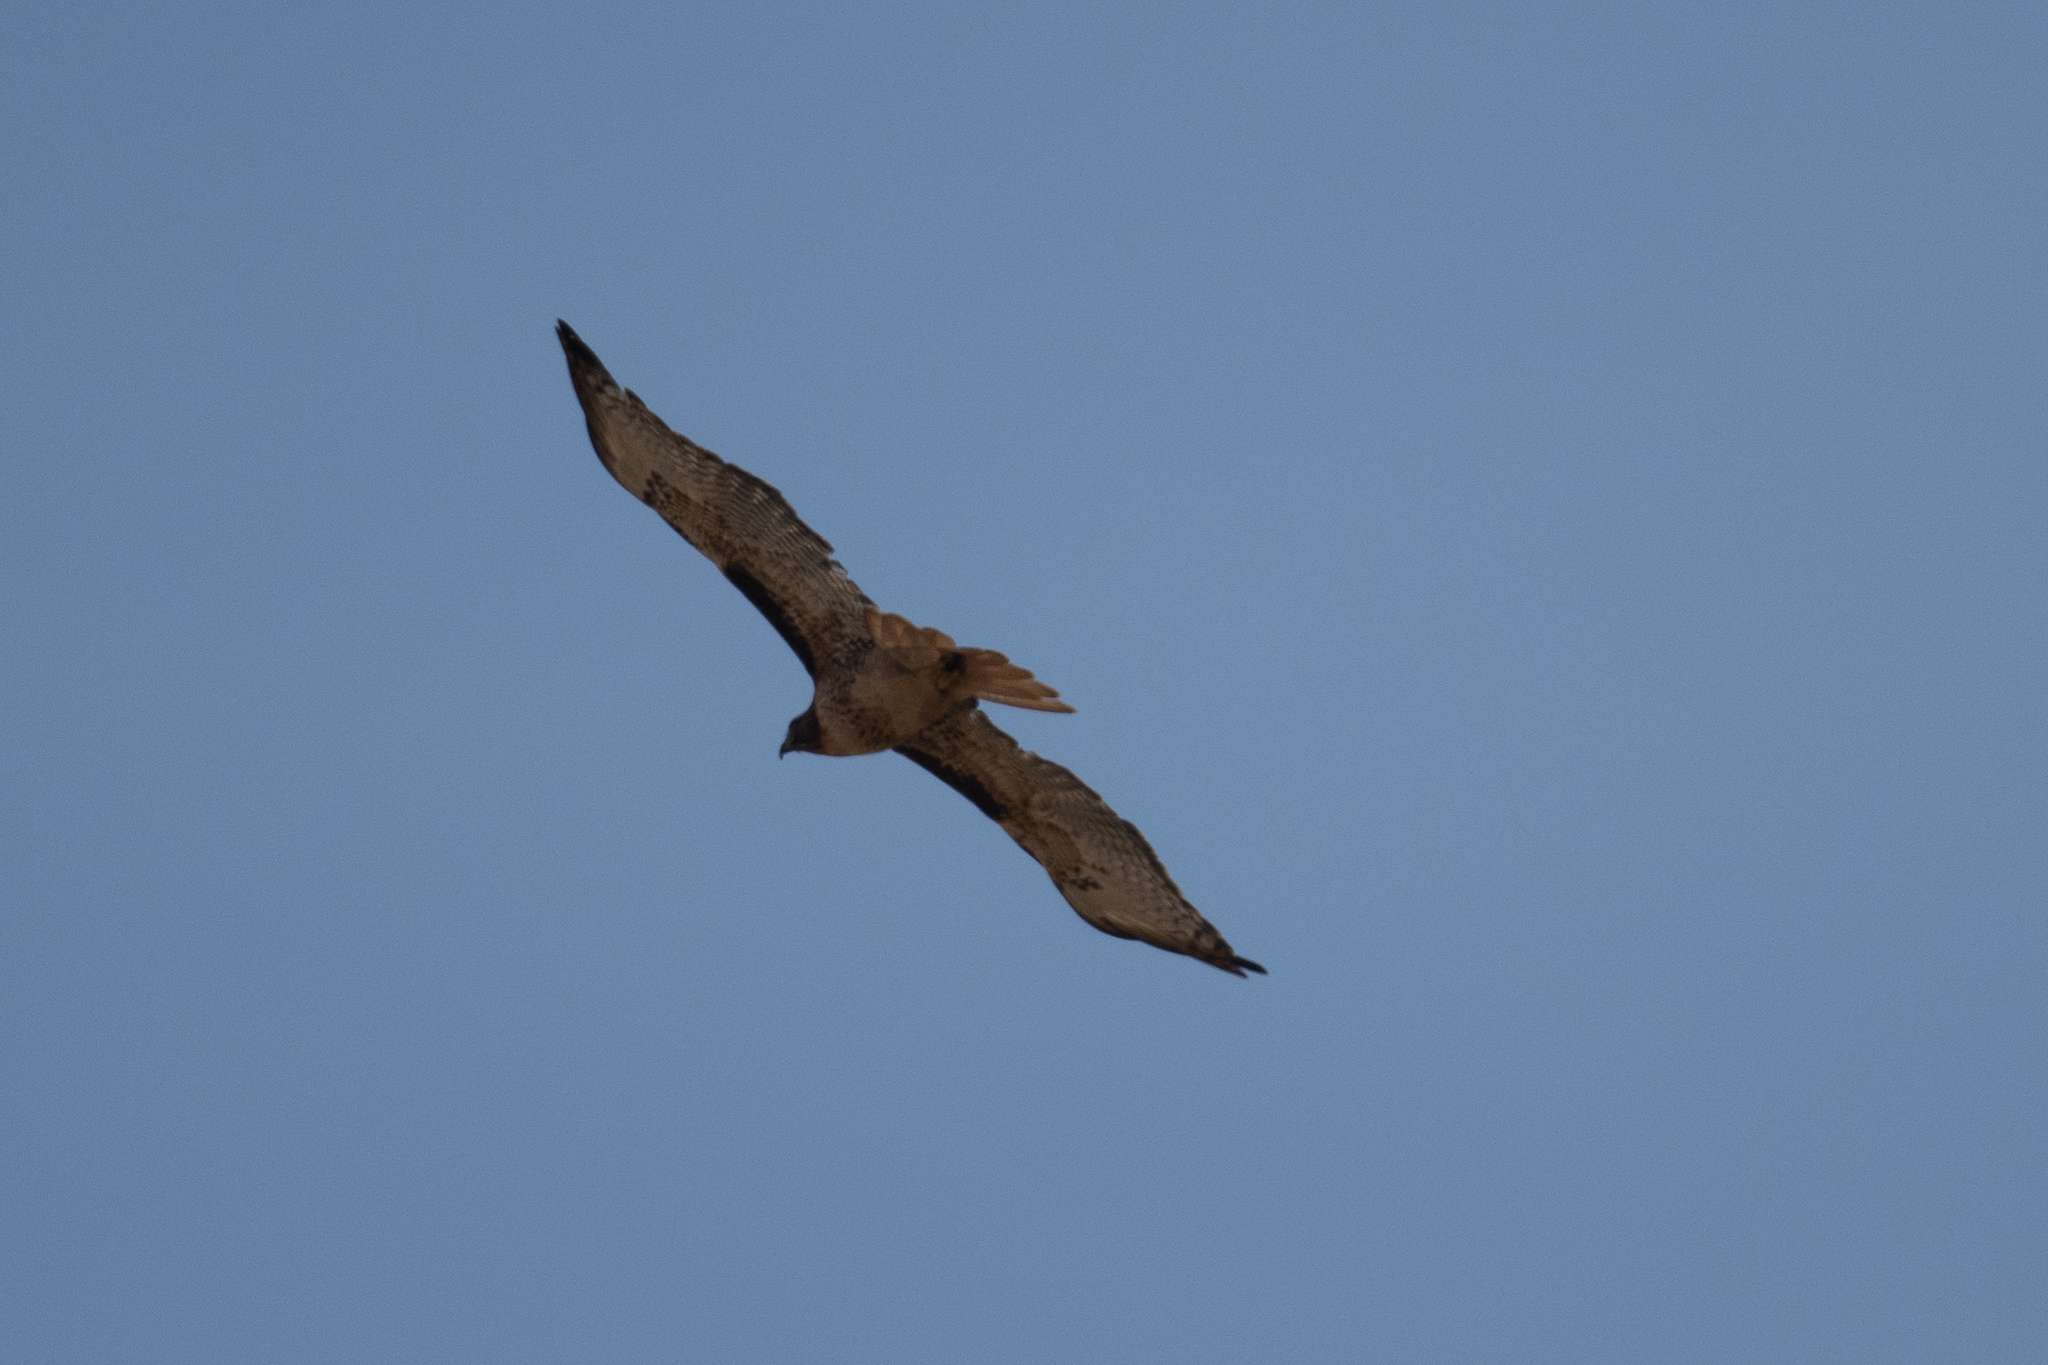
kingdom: Animalia
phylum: Chordata
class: Aves
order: Accipitriformes
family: Accipitridae
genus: Buteo
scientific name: Buteo jamaicensis
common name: Red-tailed hawk
